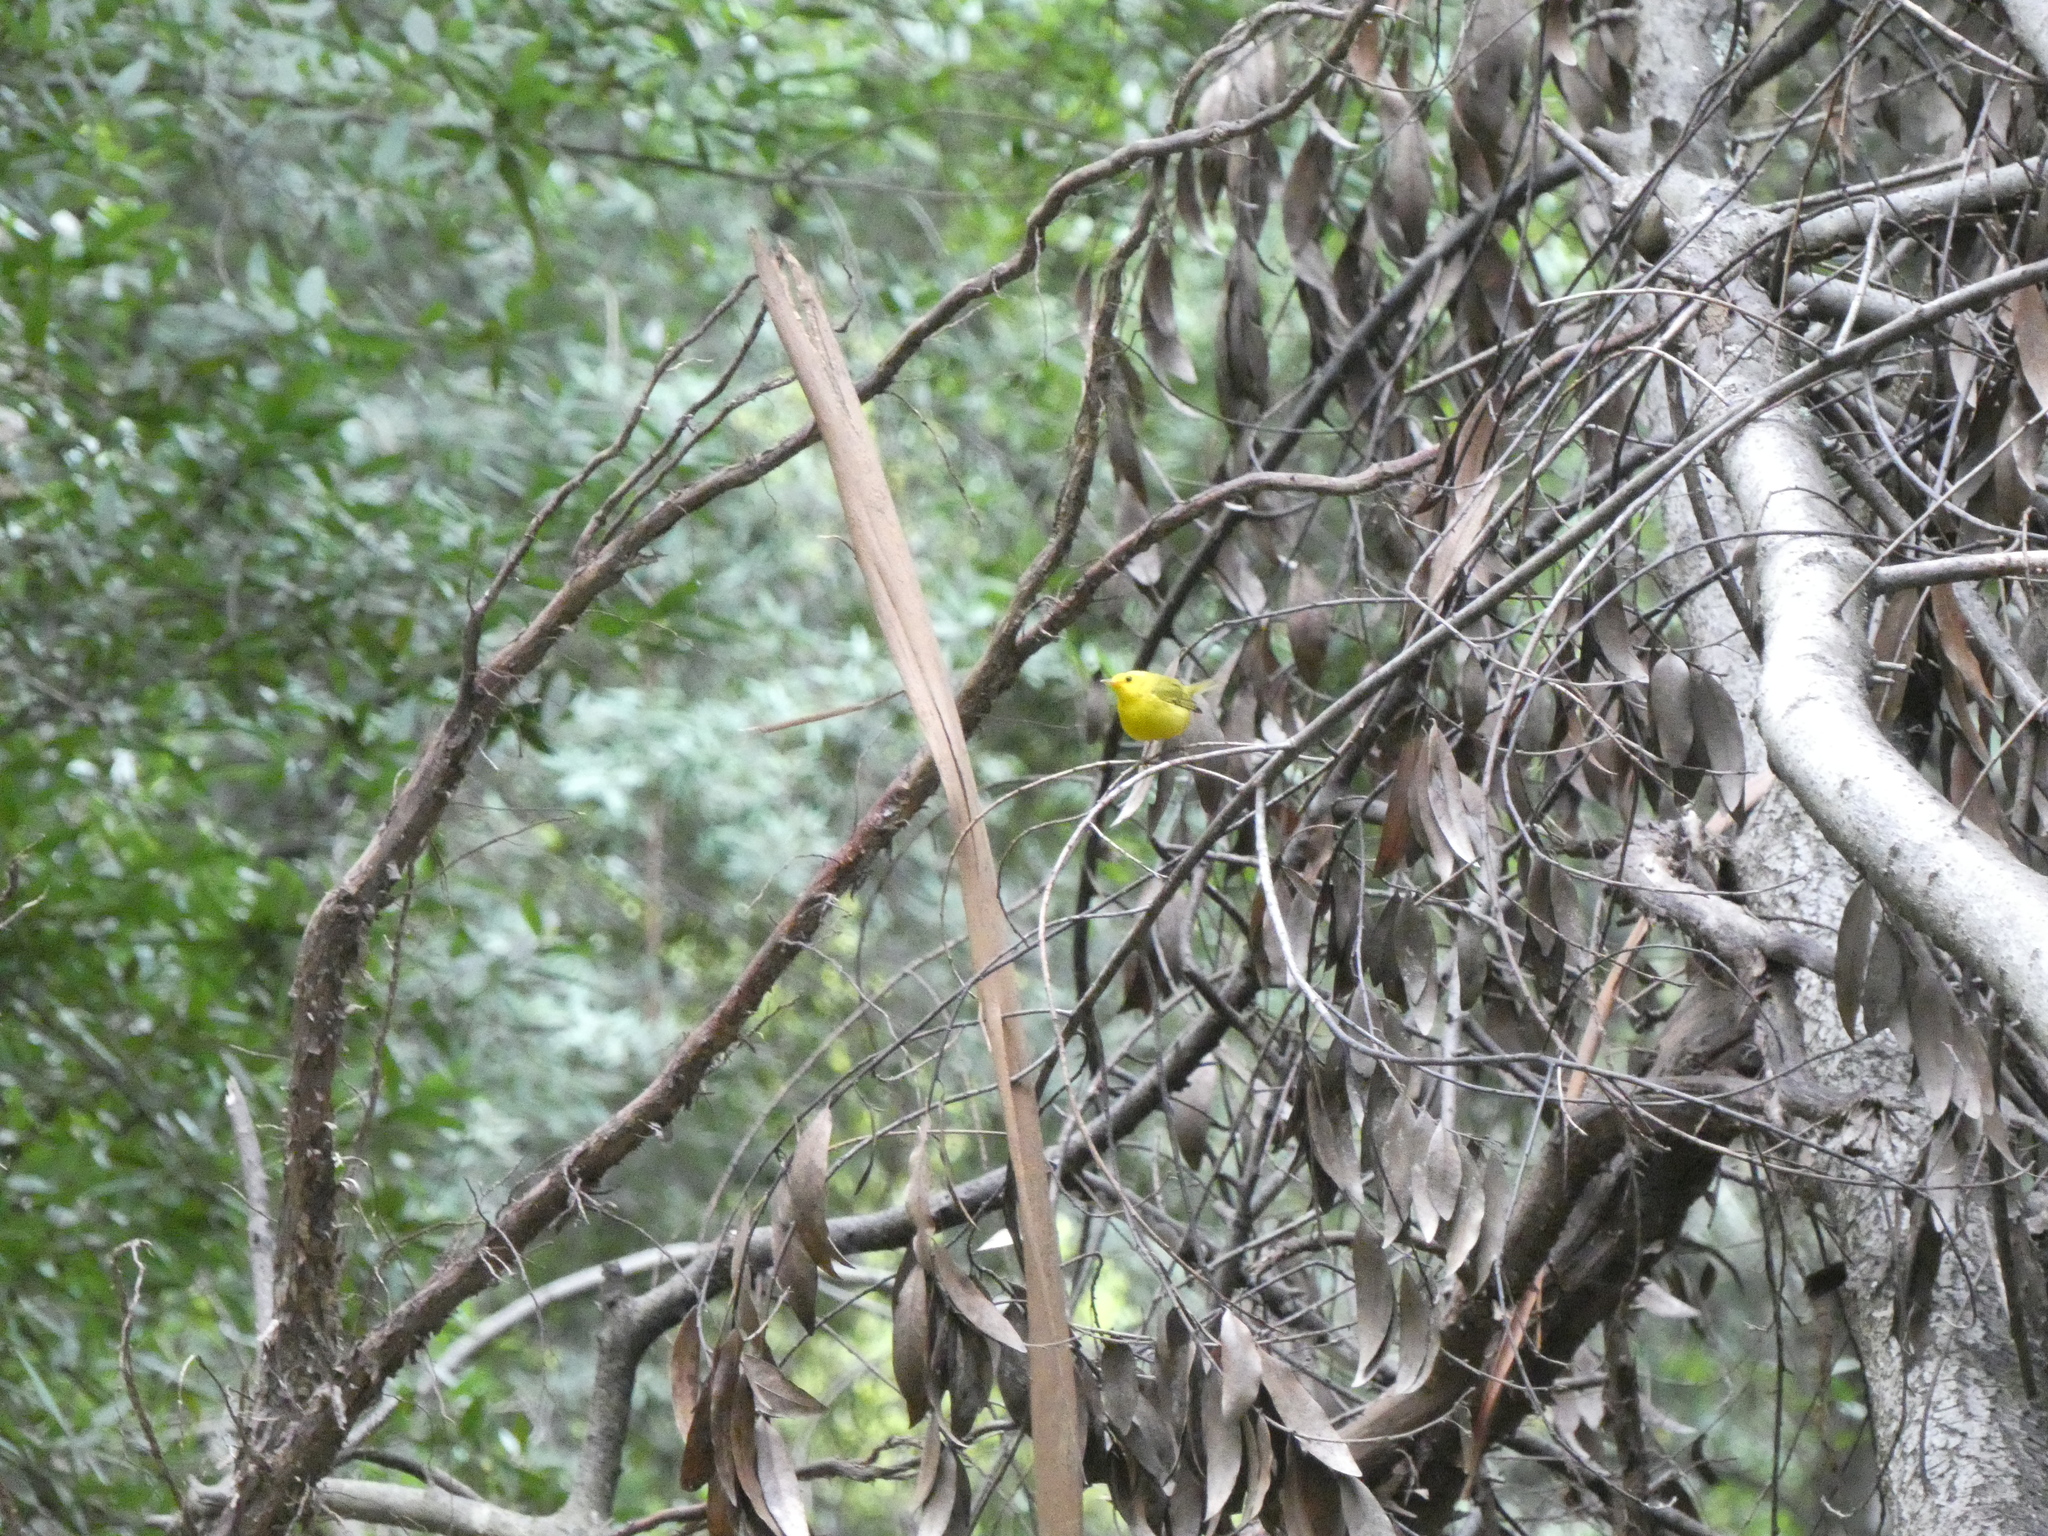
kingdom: Animalia
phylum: Chordata
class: Aves
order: Passeriformes
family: Parulidae
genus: Cardellina
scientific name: Cardellina pusilla
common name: Wilson's warbler
